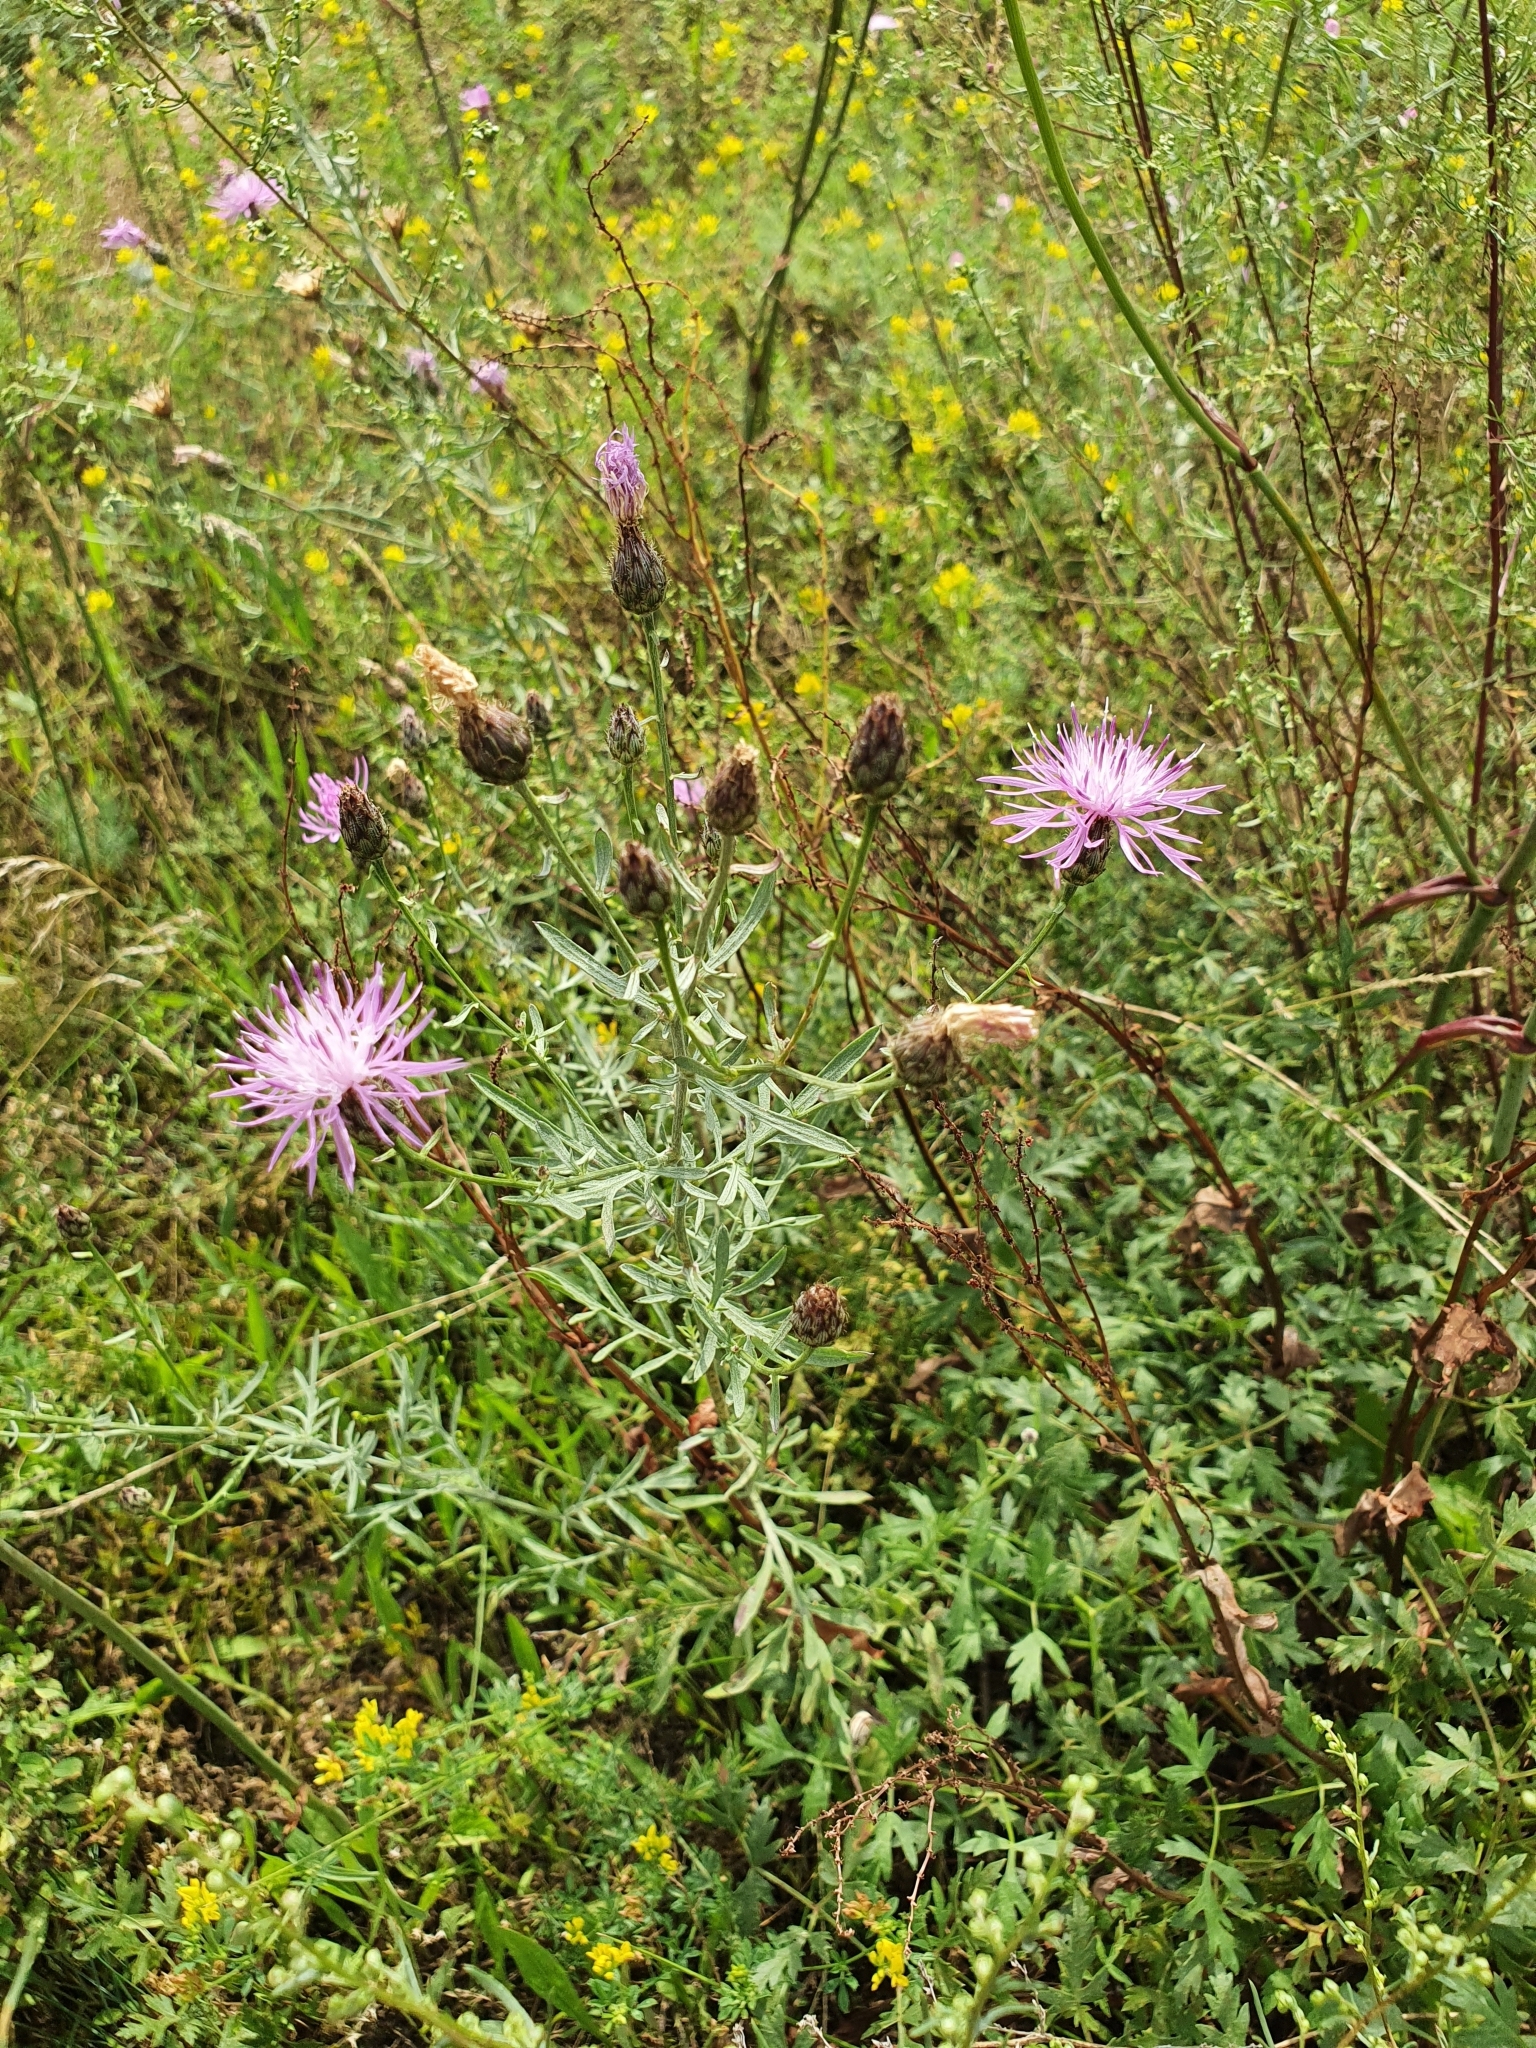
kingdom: Plantae
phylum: Tracheophyta
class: Magnoliopsida
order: Asterales
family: Asteraceae
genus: Centaurea
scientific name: Centaurea stoebe
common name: Spotted knapweed
